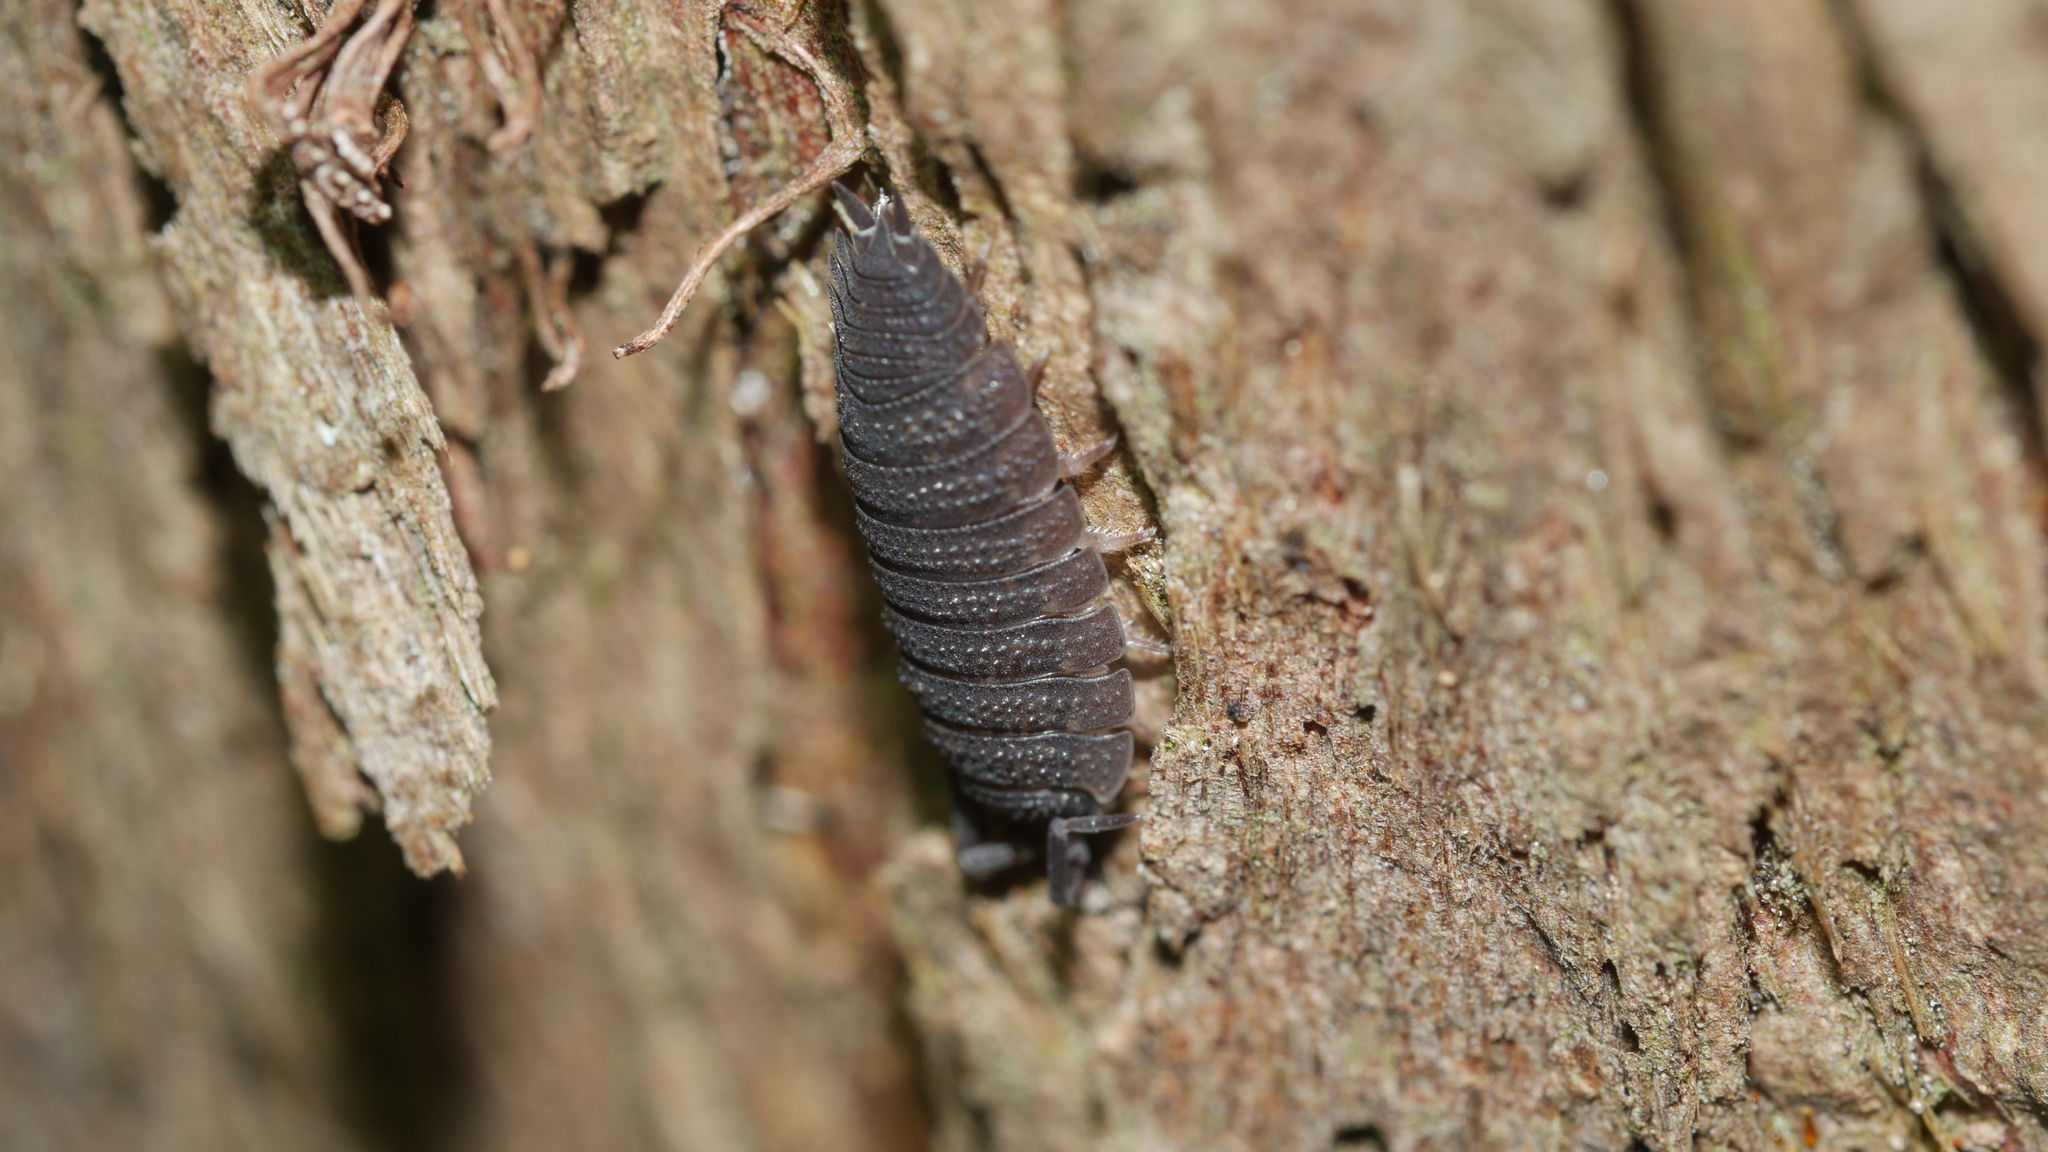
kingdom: Animalia
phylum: Arthropoda
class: Malacostraca
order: Isopoda
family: Porcellionidae
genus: Porcellio
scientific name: Porcellio scaber
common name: Common rough woodlouse
